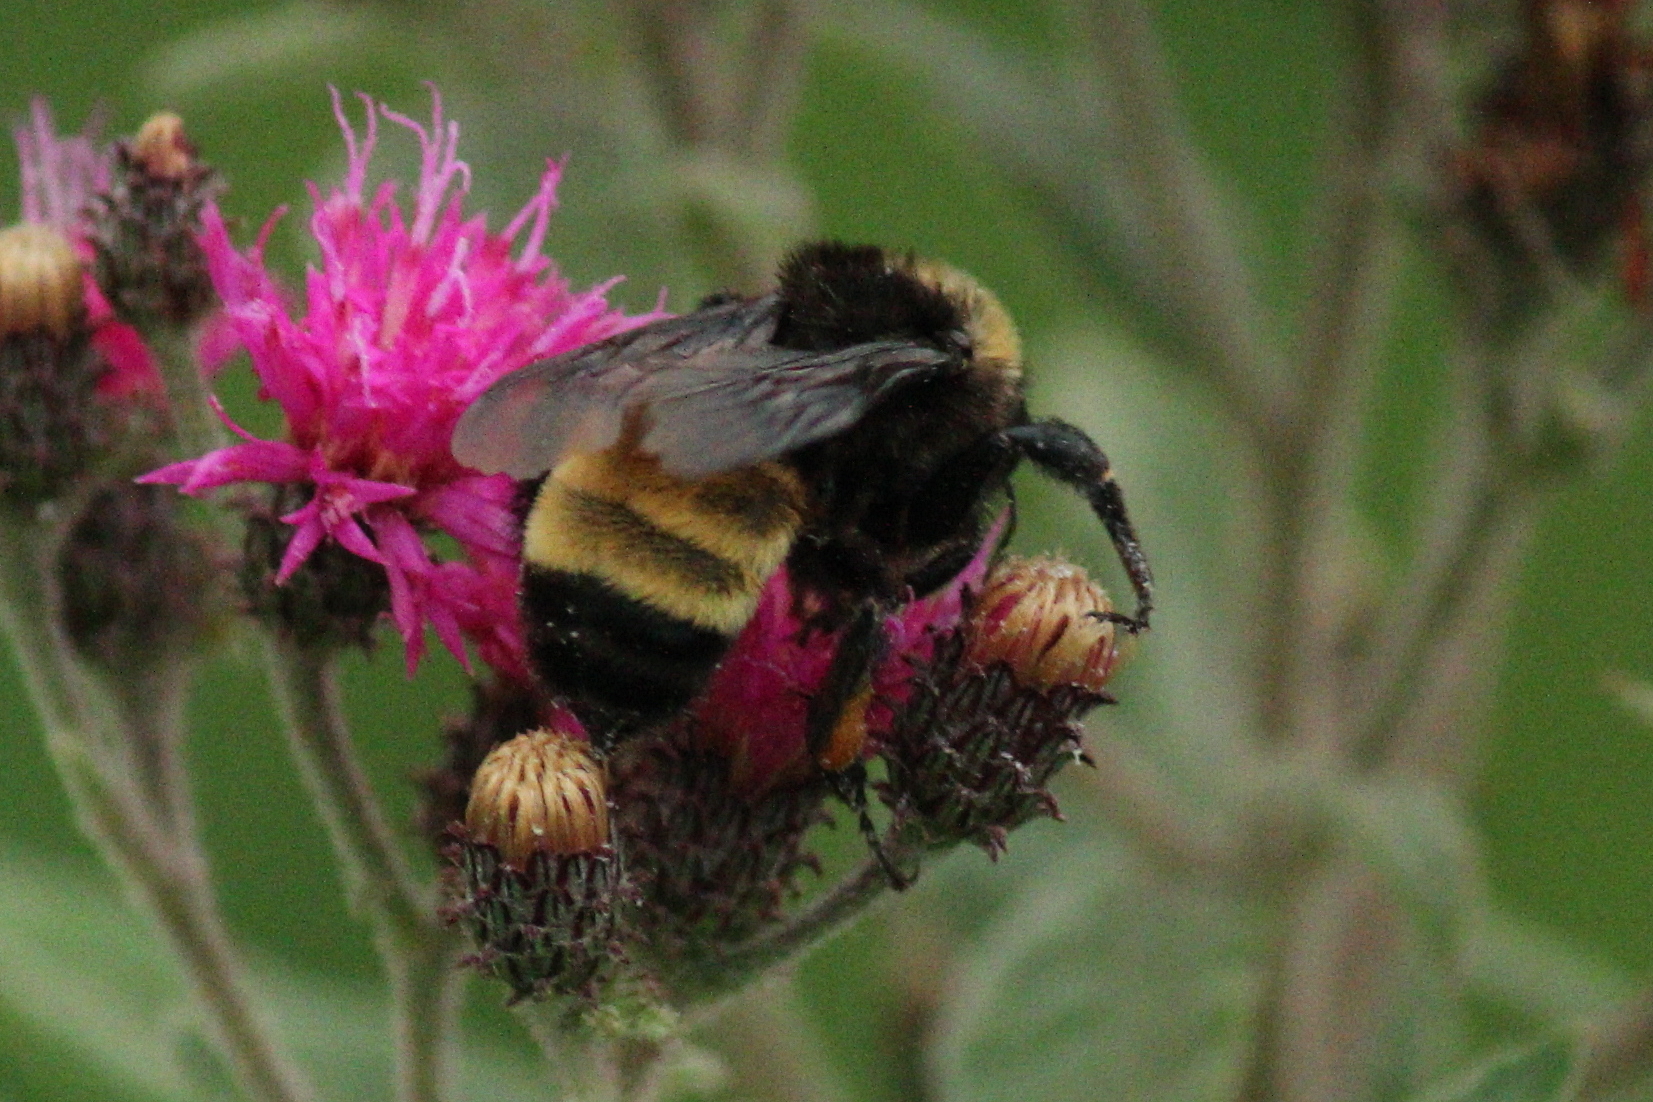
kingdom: Animalia
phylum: Arthropoda
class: Insecta
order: Hymenoptera
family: Apidae
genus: Bombus
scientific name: Bombus pensylvanicus
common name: Bumble bee
